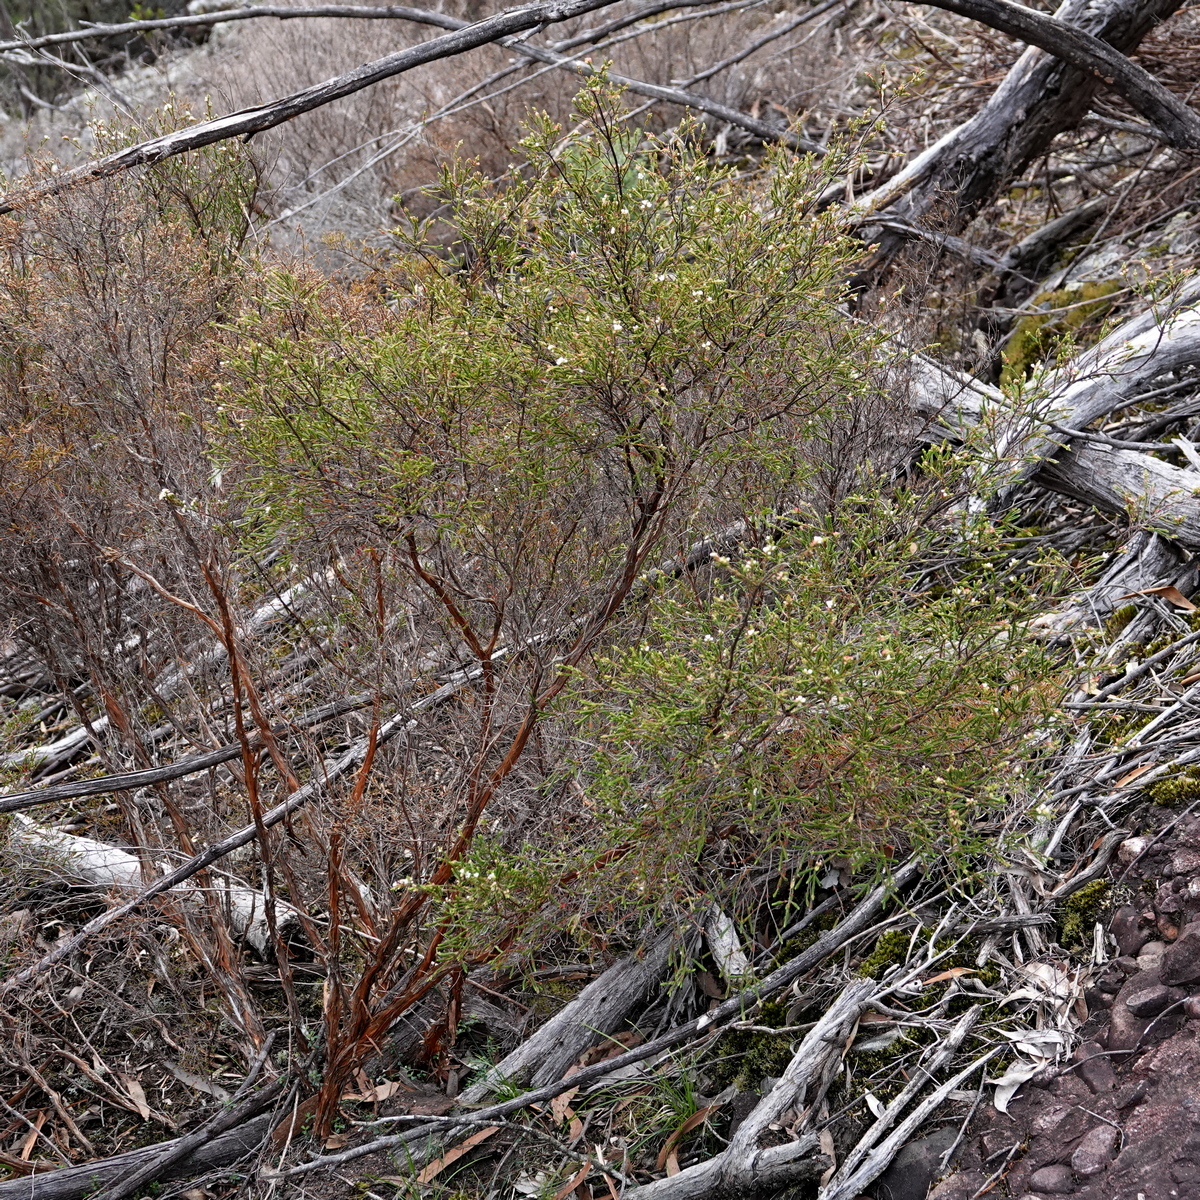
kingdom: Plantae
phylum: Tracheophyta
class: Magnoliopsida
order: Myrtales
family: Myrtaceae
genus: Micromyrtus
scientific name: Micromyrtus ciliata
